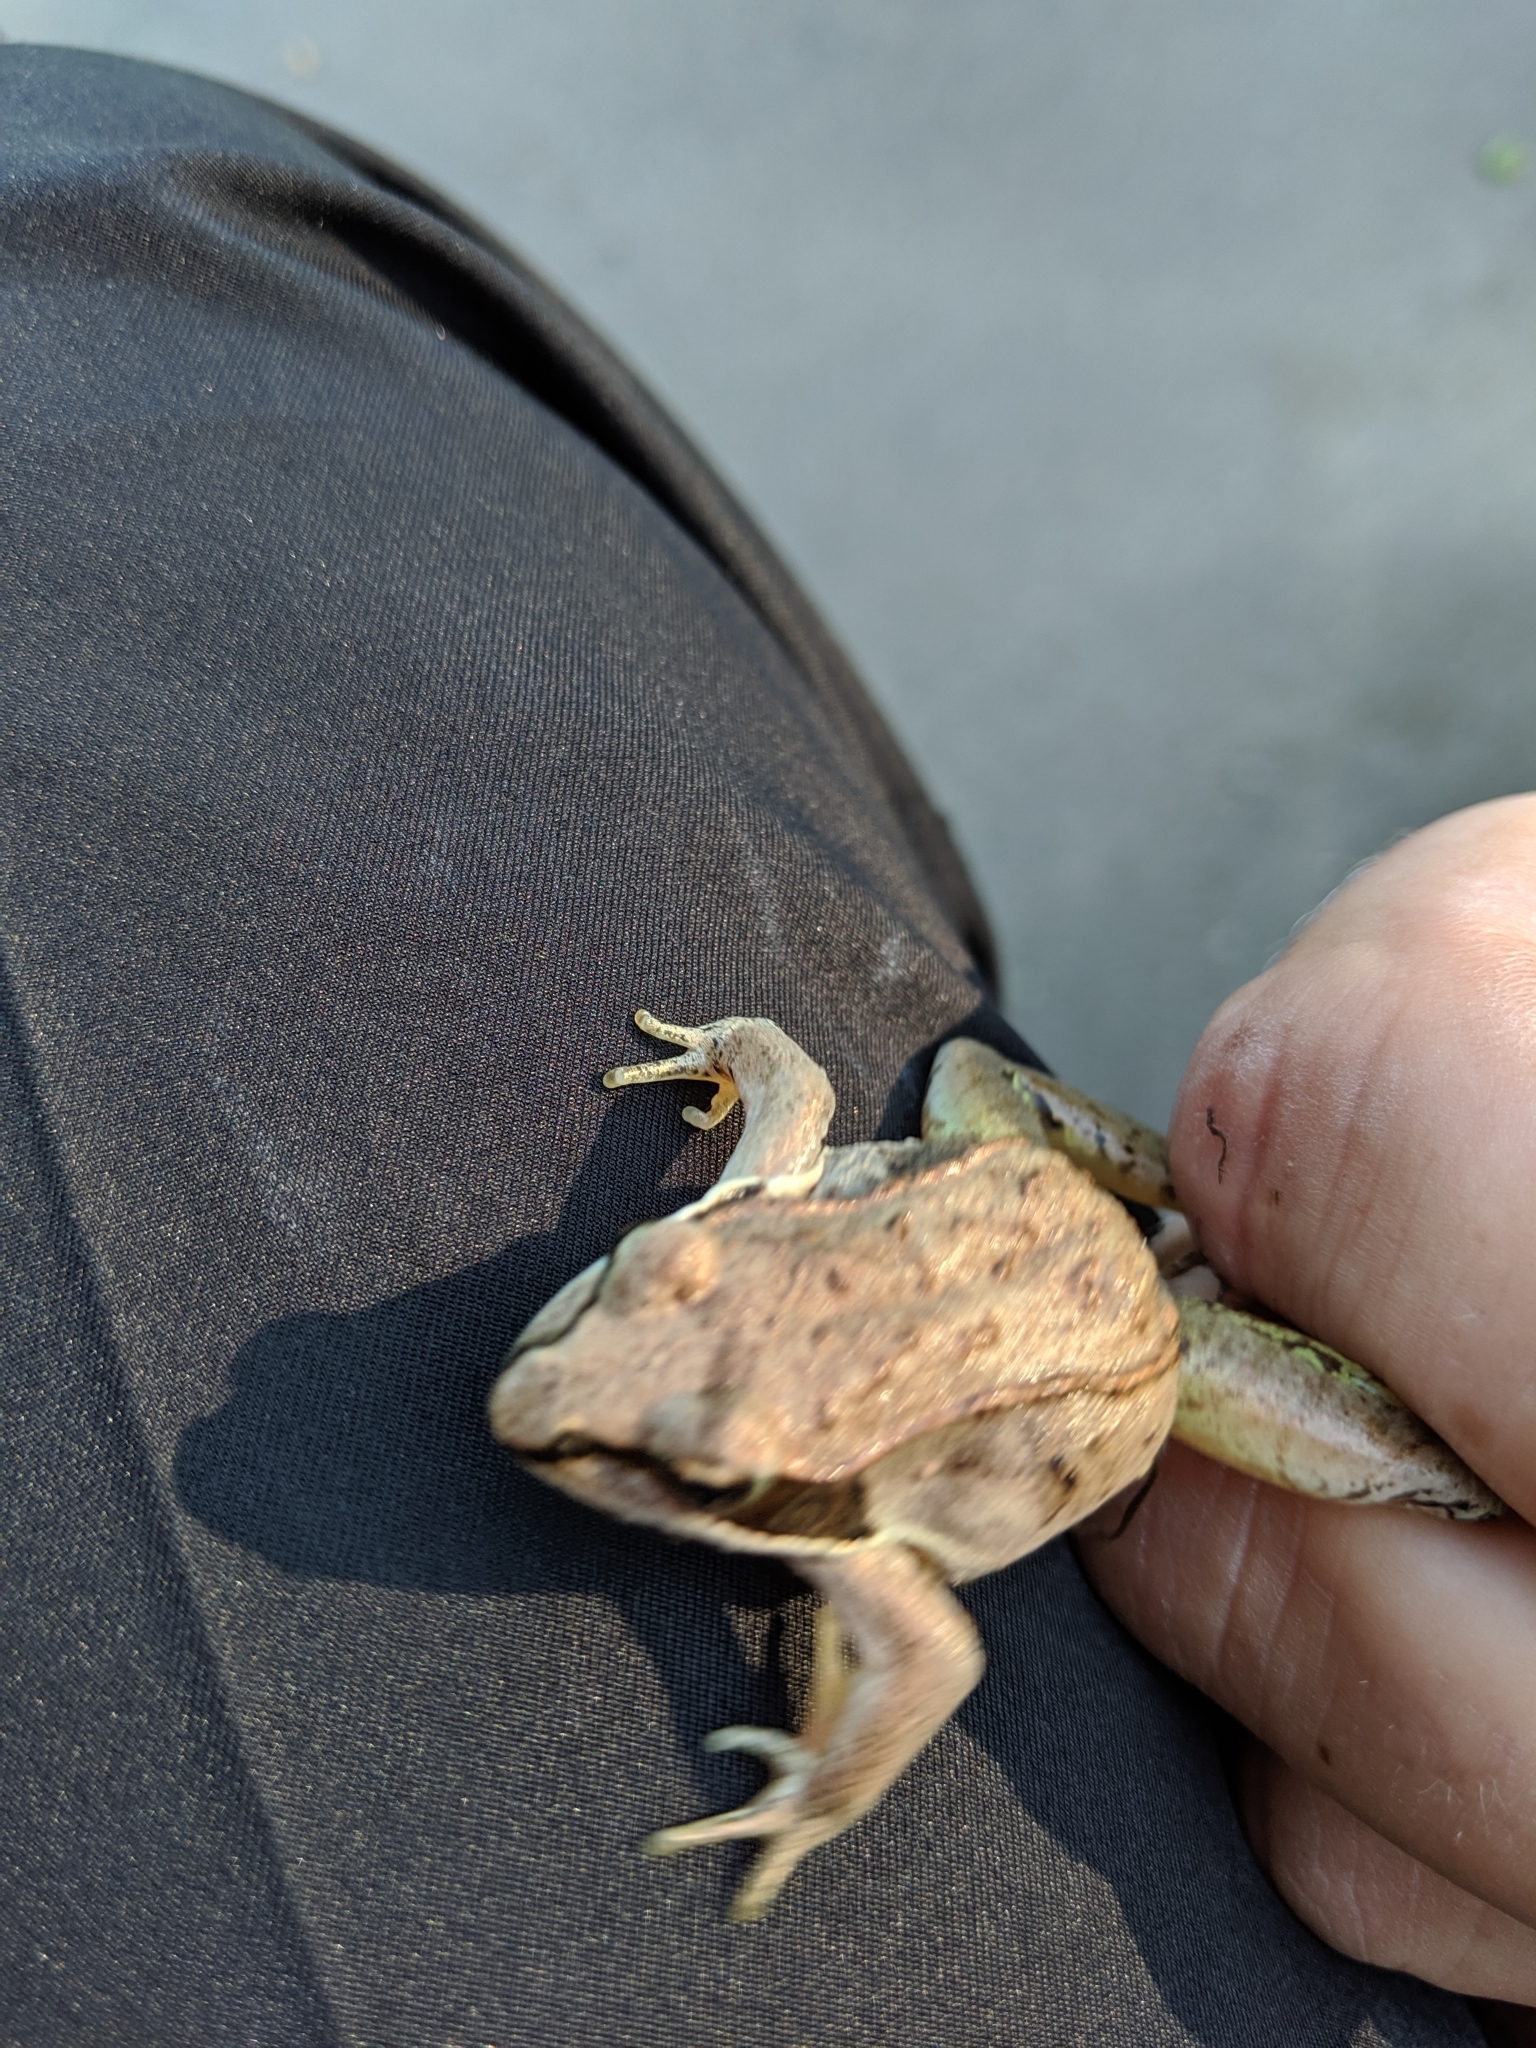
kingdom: Animalia
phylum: Chordata
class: Amphibia
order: Anura
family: Ranidae
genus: Lithobates
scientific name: Lithobates sylvaticus
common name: Wood frog
